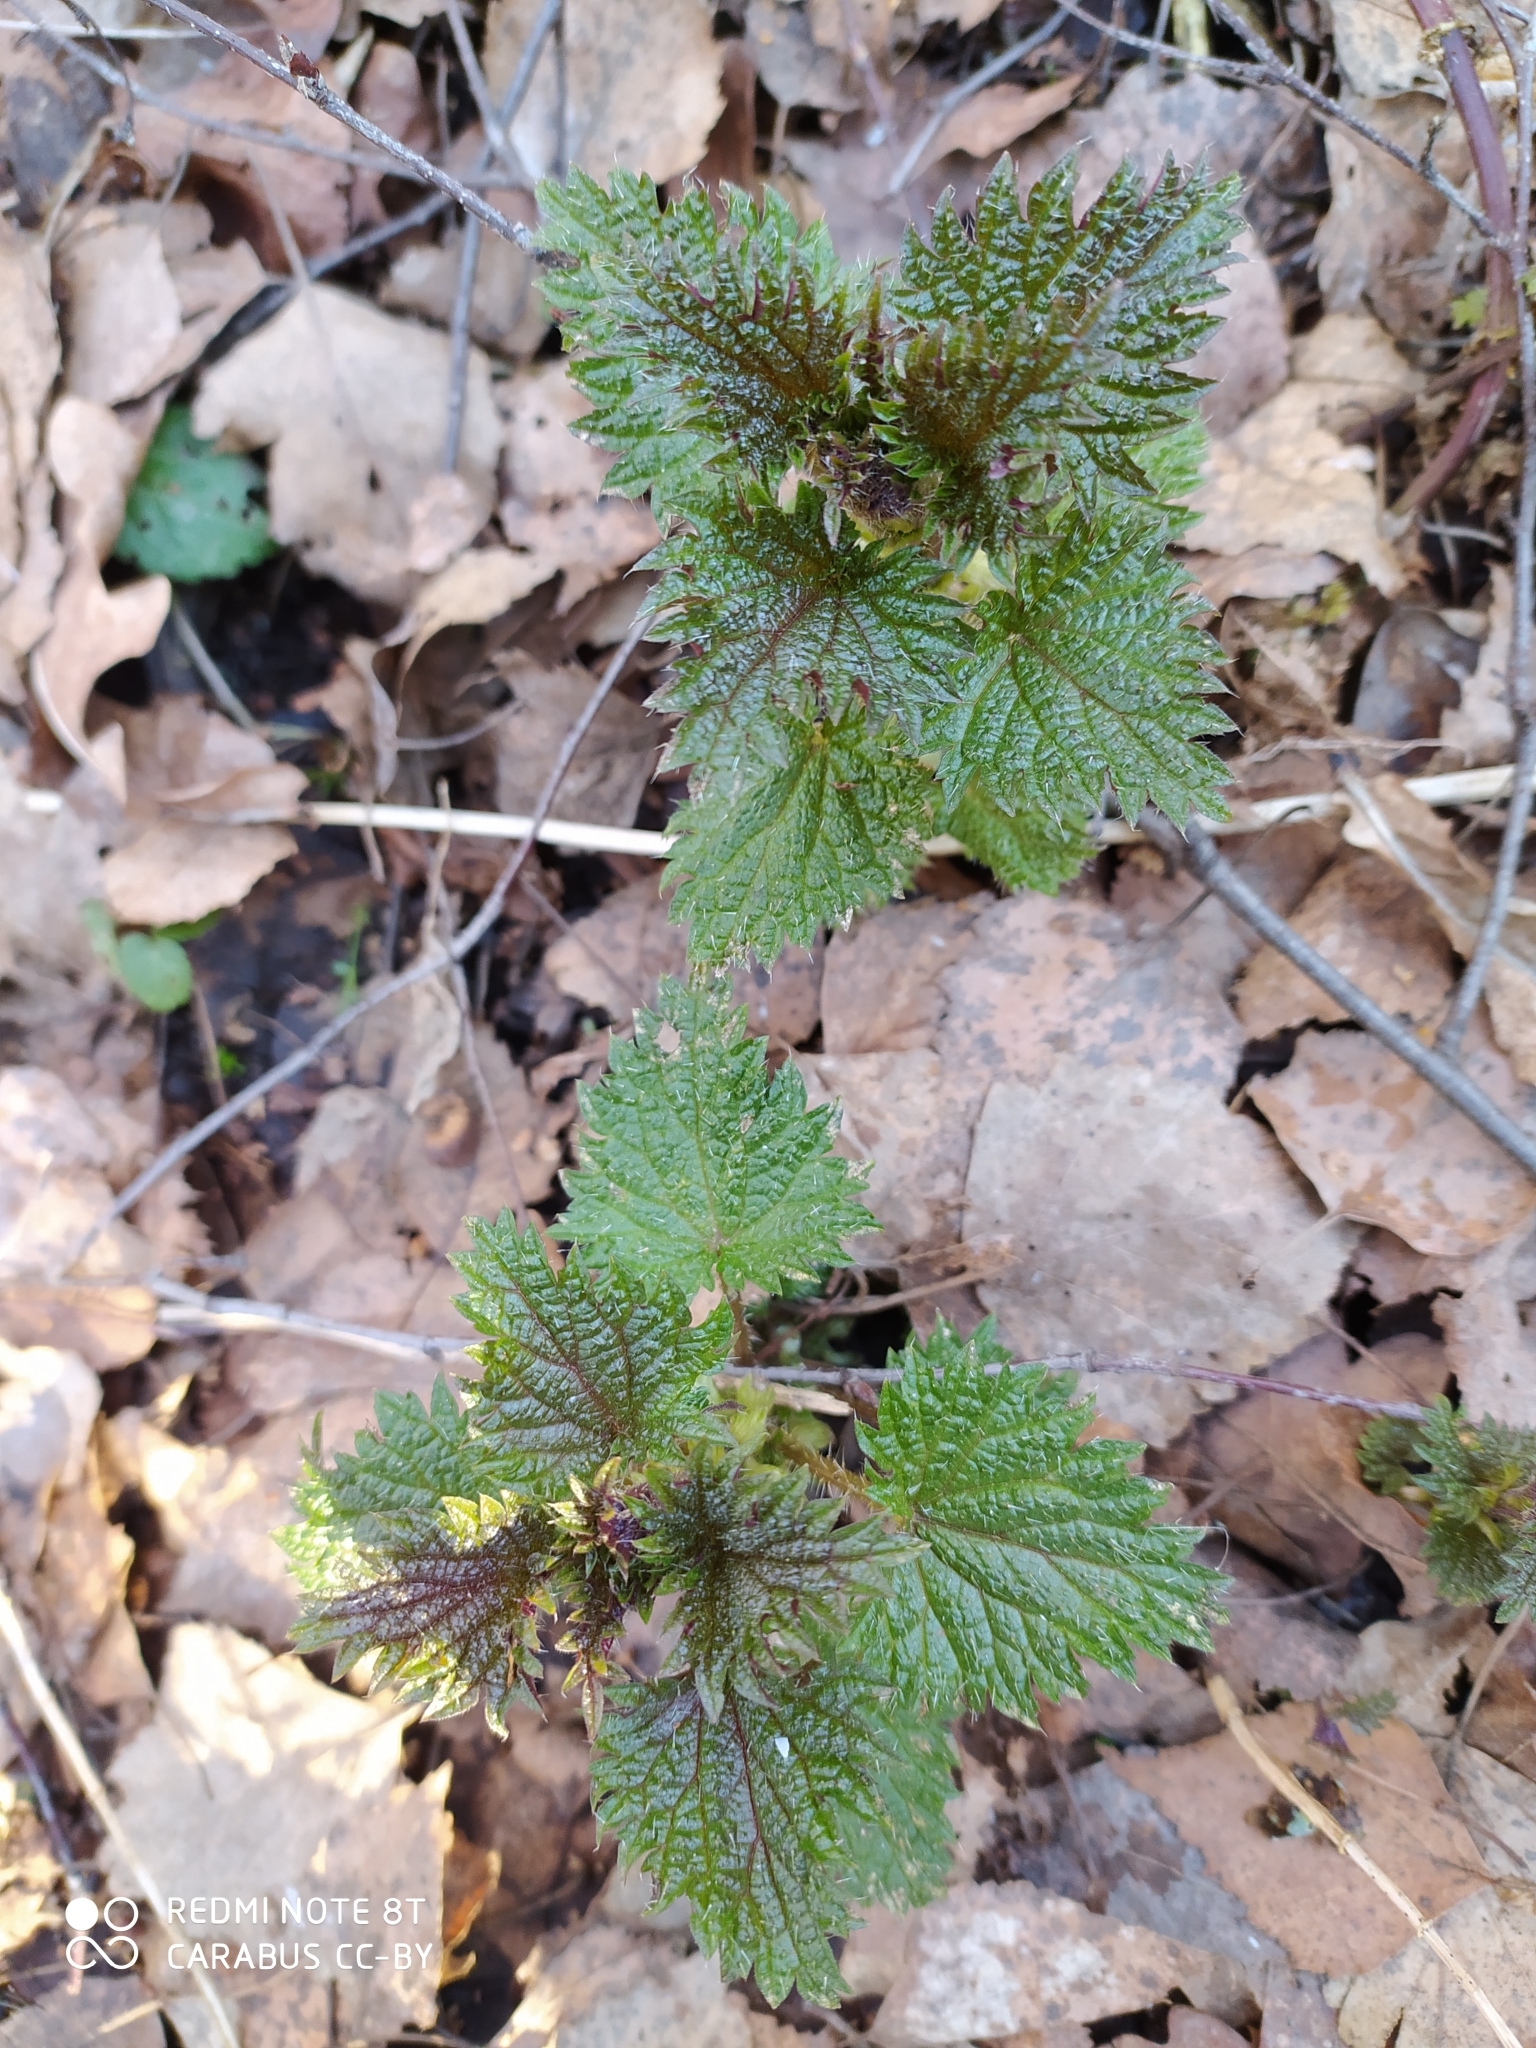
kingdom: Plantae
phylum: Tracheophyta
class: Magnoliopsida
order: Rosales
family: Urticaceae
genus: Urtica
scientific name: Urtica dioica
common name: Common nettle
